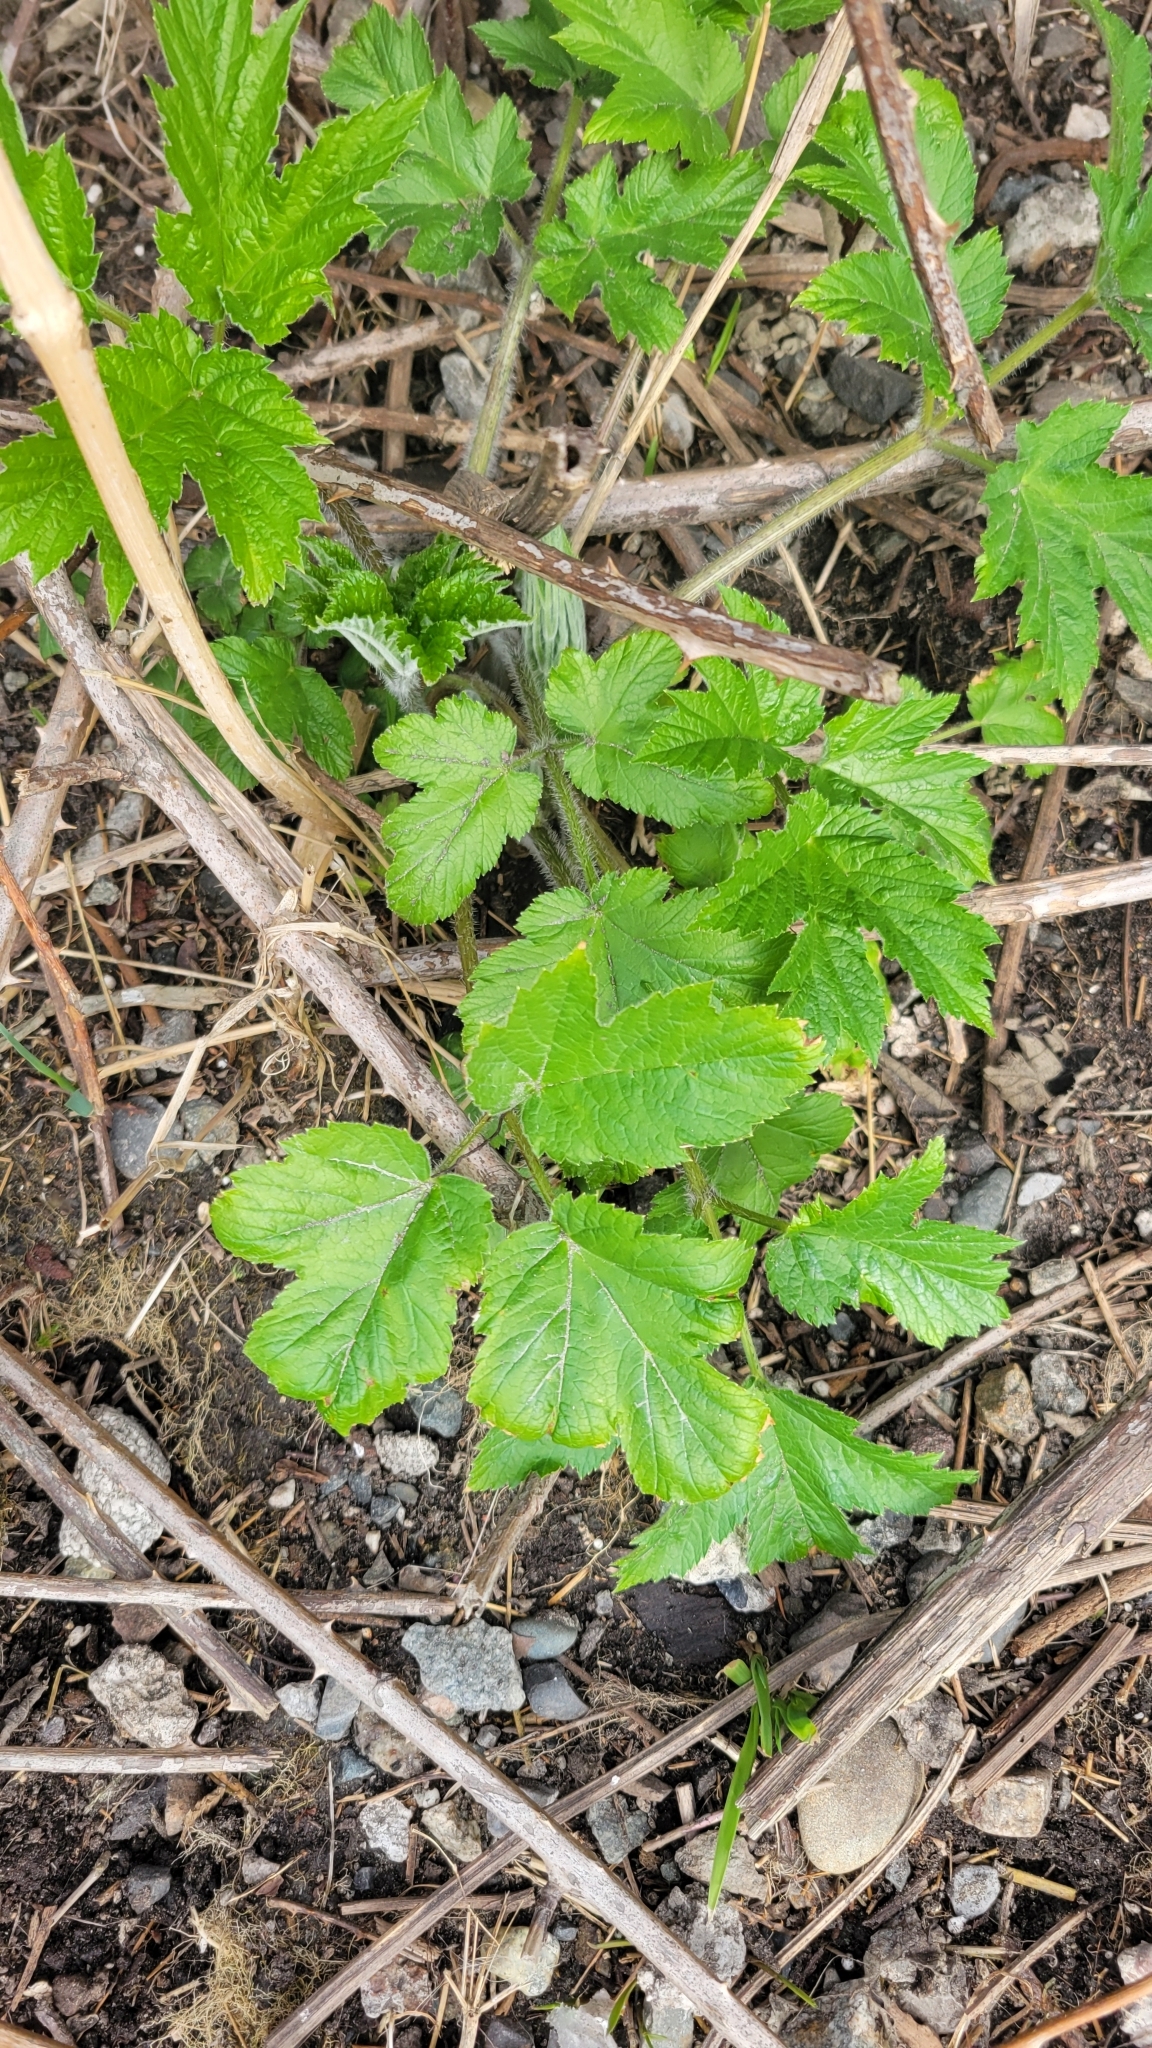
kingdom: Plantae
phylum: Tracheophyta
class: Magnoliopsida
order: Apiales
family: Apiaceae
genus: Heracleum
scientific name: Heracleum maximum
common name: American cow parsnip
